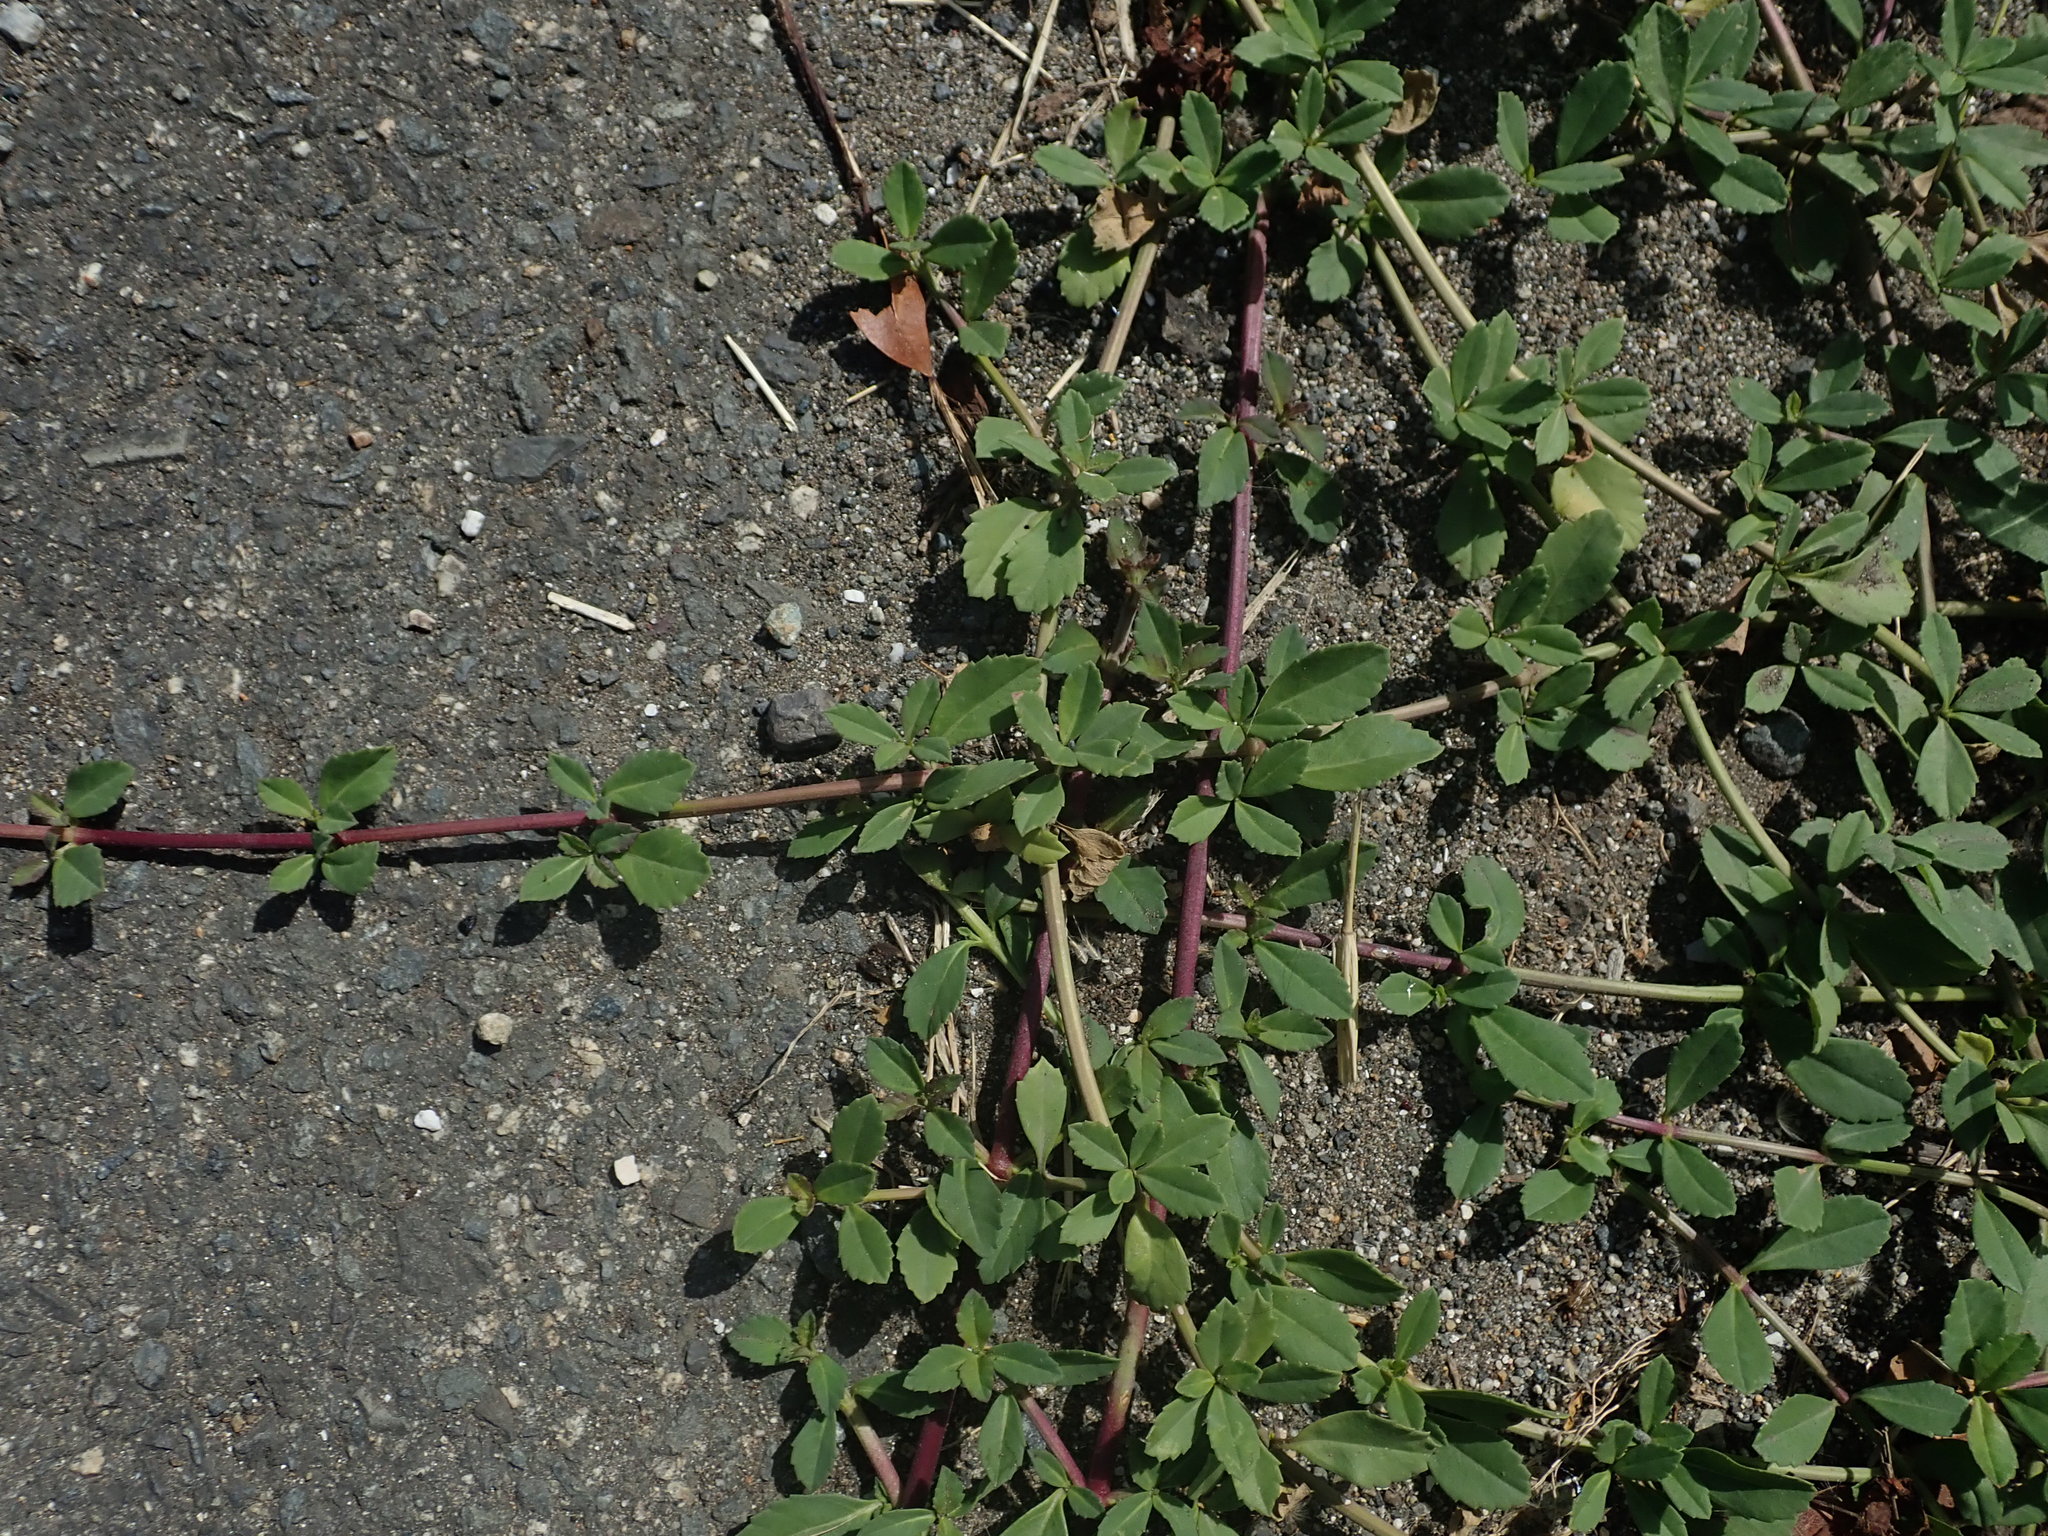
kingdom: Plantae
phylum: Tracheophyta
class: Magnoliopsida
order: Lamiales
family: Verbenaceae
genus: Phyla
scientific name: Phyla nodiflora
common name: Frogfruit
